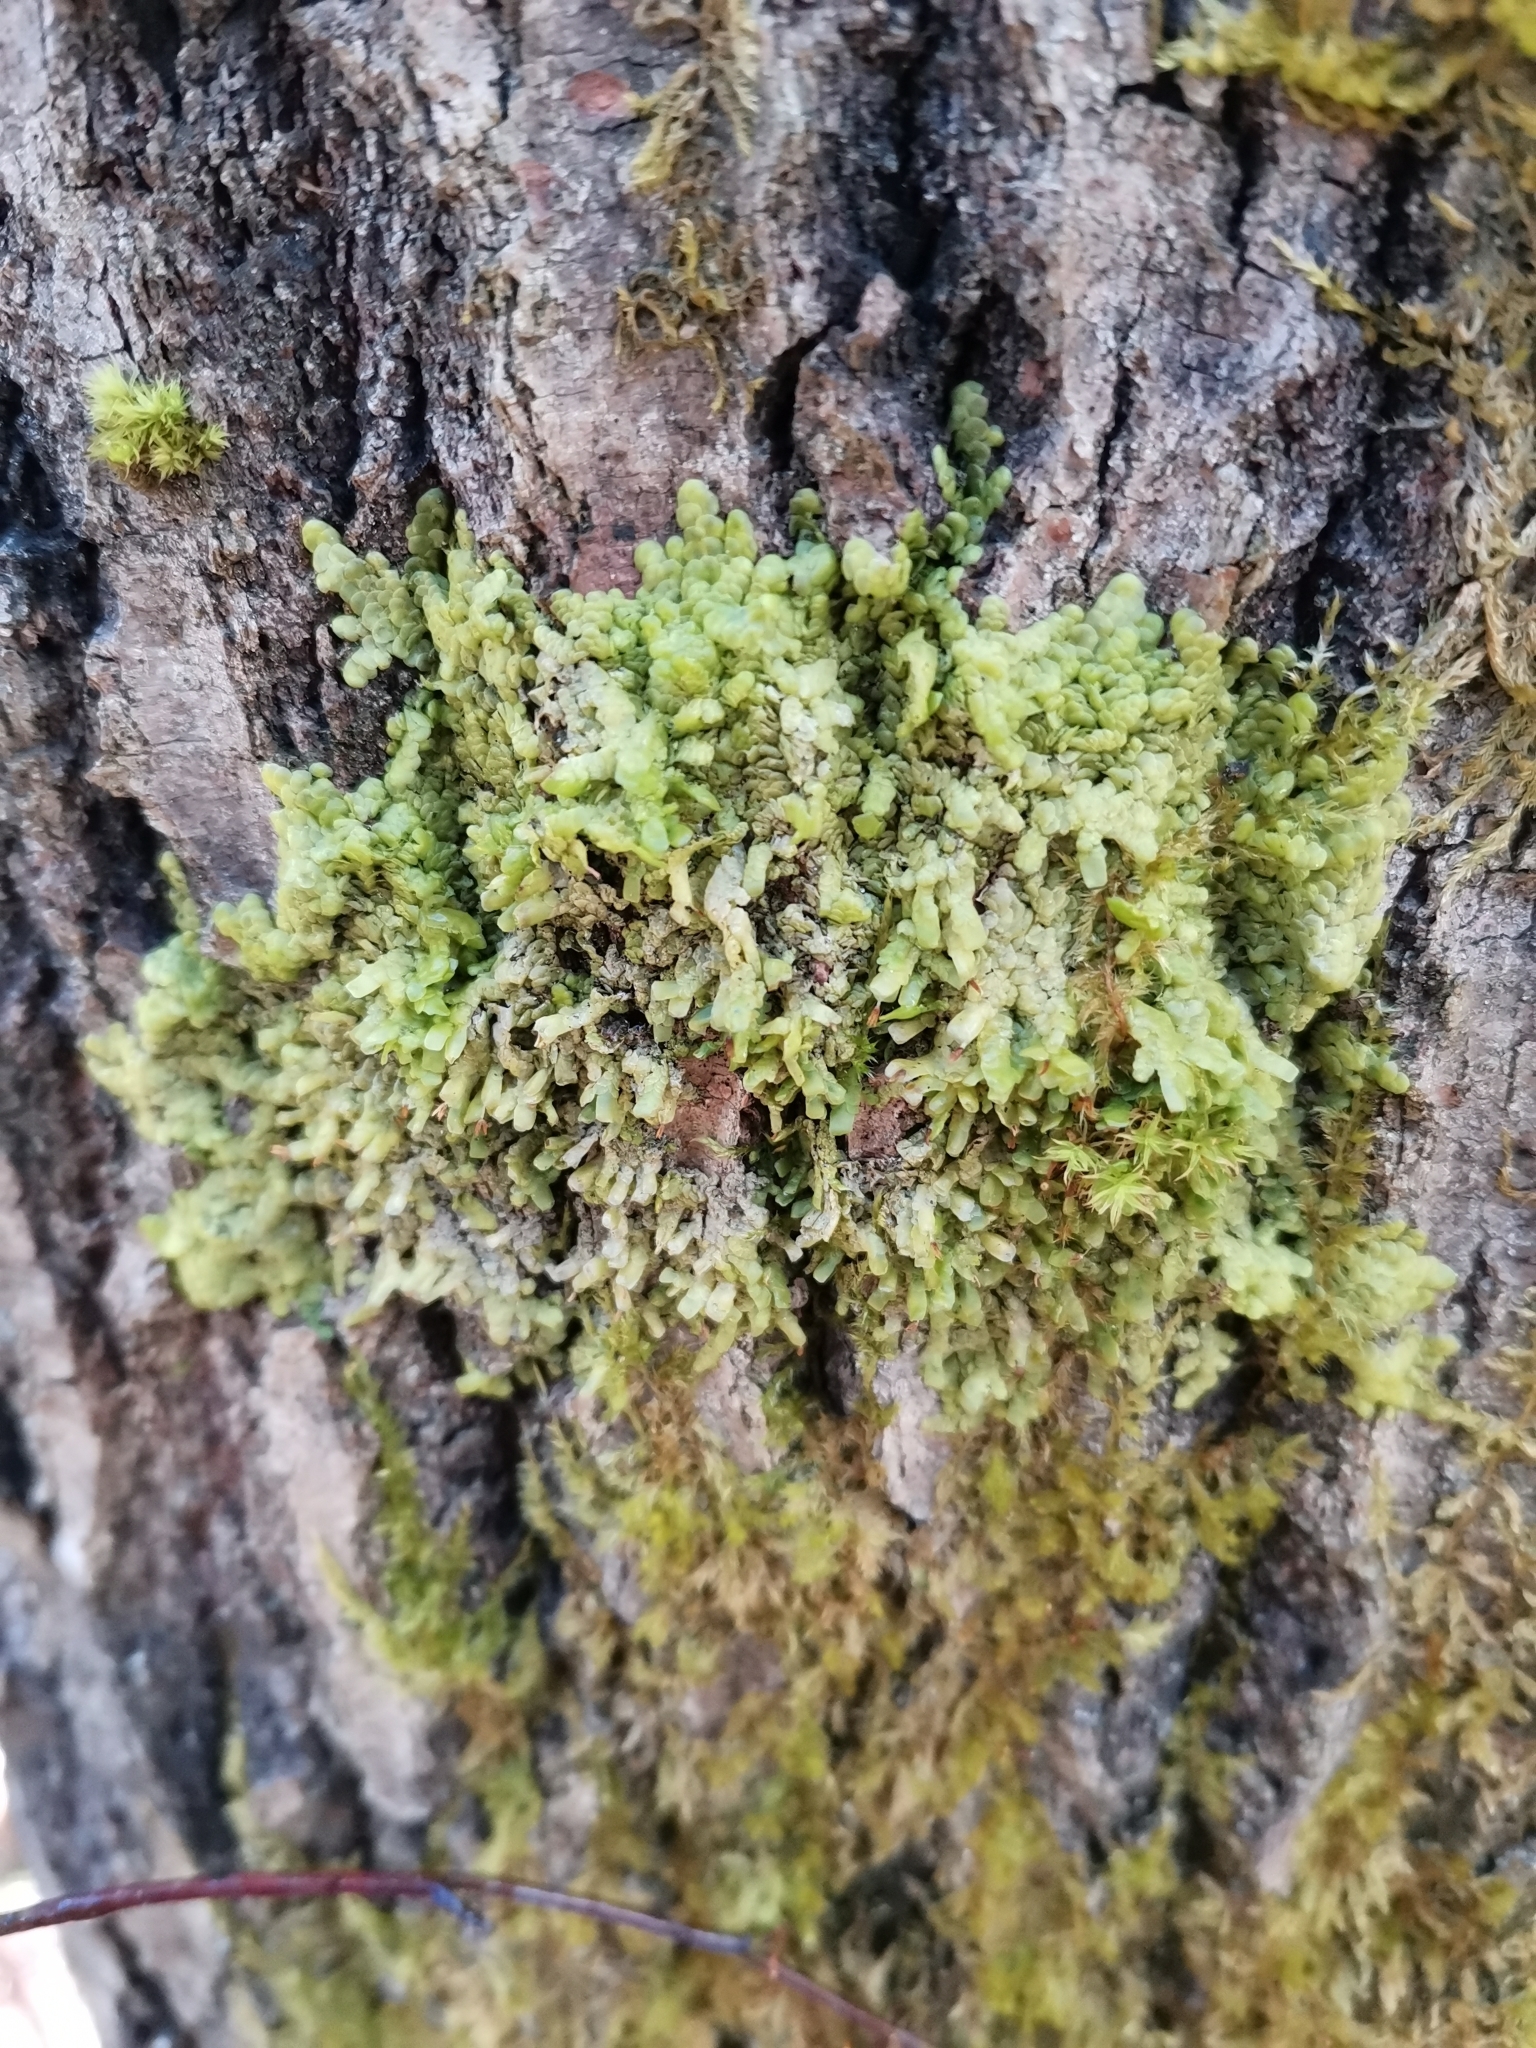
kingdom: Plantae
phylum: Marchantiophyta
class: Jungermanniopsida
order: Porellales
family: Radulaceae
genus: Radula
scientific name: Radula complanata
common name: Flat-leaved scalewort
